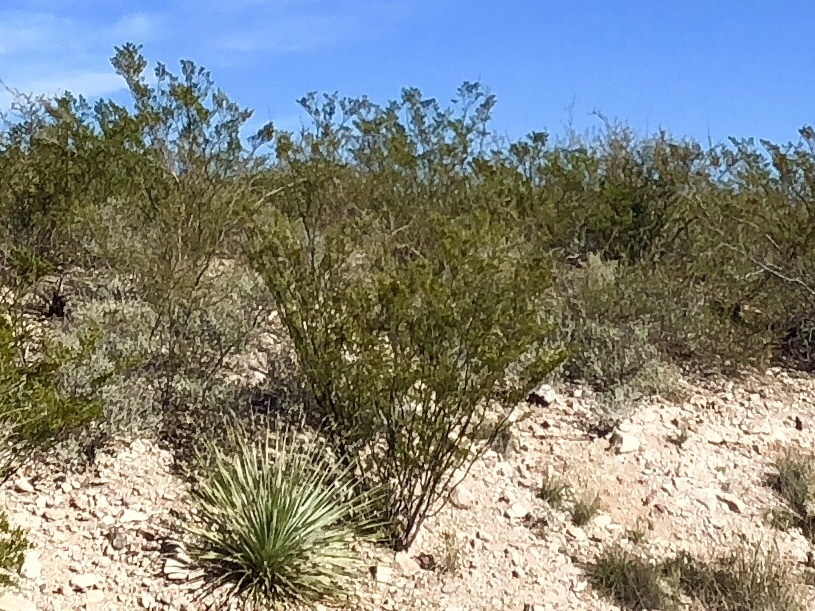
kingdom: Plantae
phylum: Tracheophyta
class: Magnoliopsida
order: Zygophyllales
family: Zygophyllaceae
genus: Larrea
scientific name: Larrea tridentata
